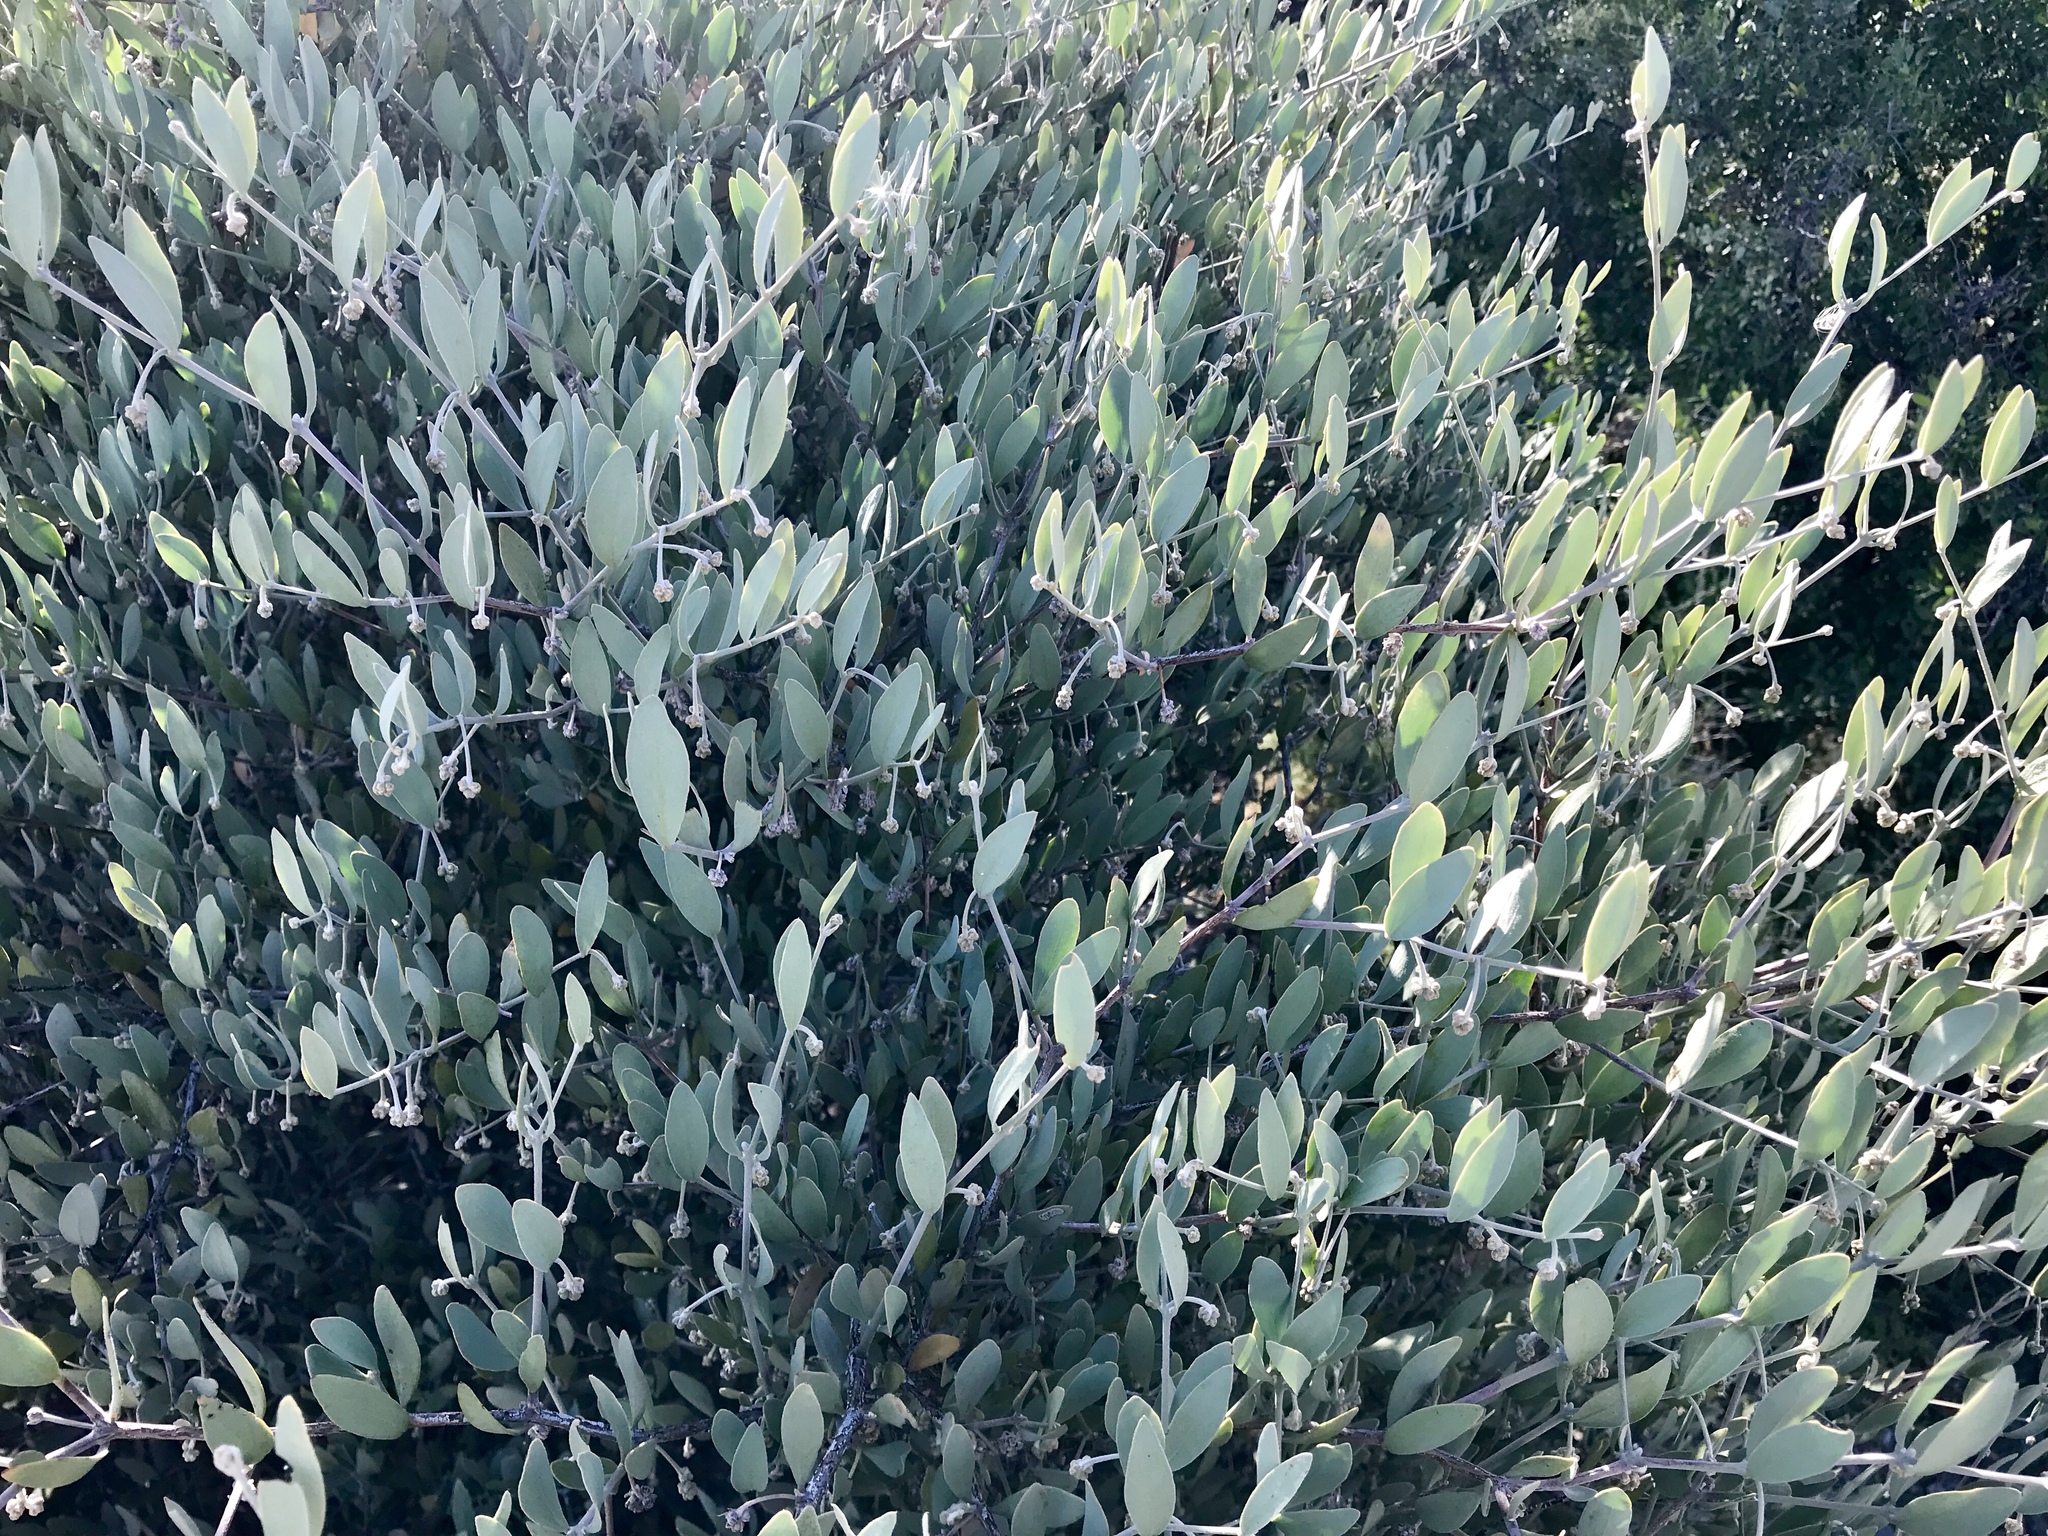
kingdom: Plantae
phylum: Tracheophyta
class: Magnoliopsida
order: Caryophyllales
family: Simmondsiaceae
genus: Simmondsia
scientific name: Simmondsia chinensis
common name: Jojoba
